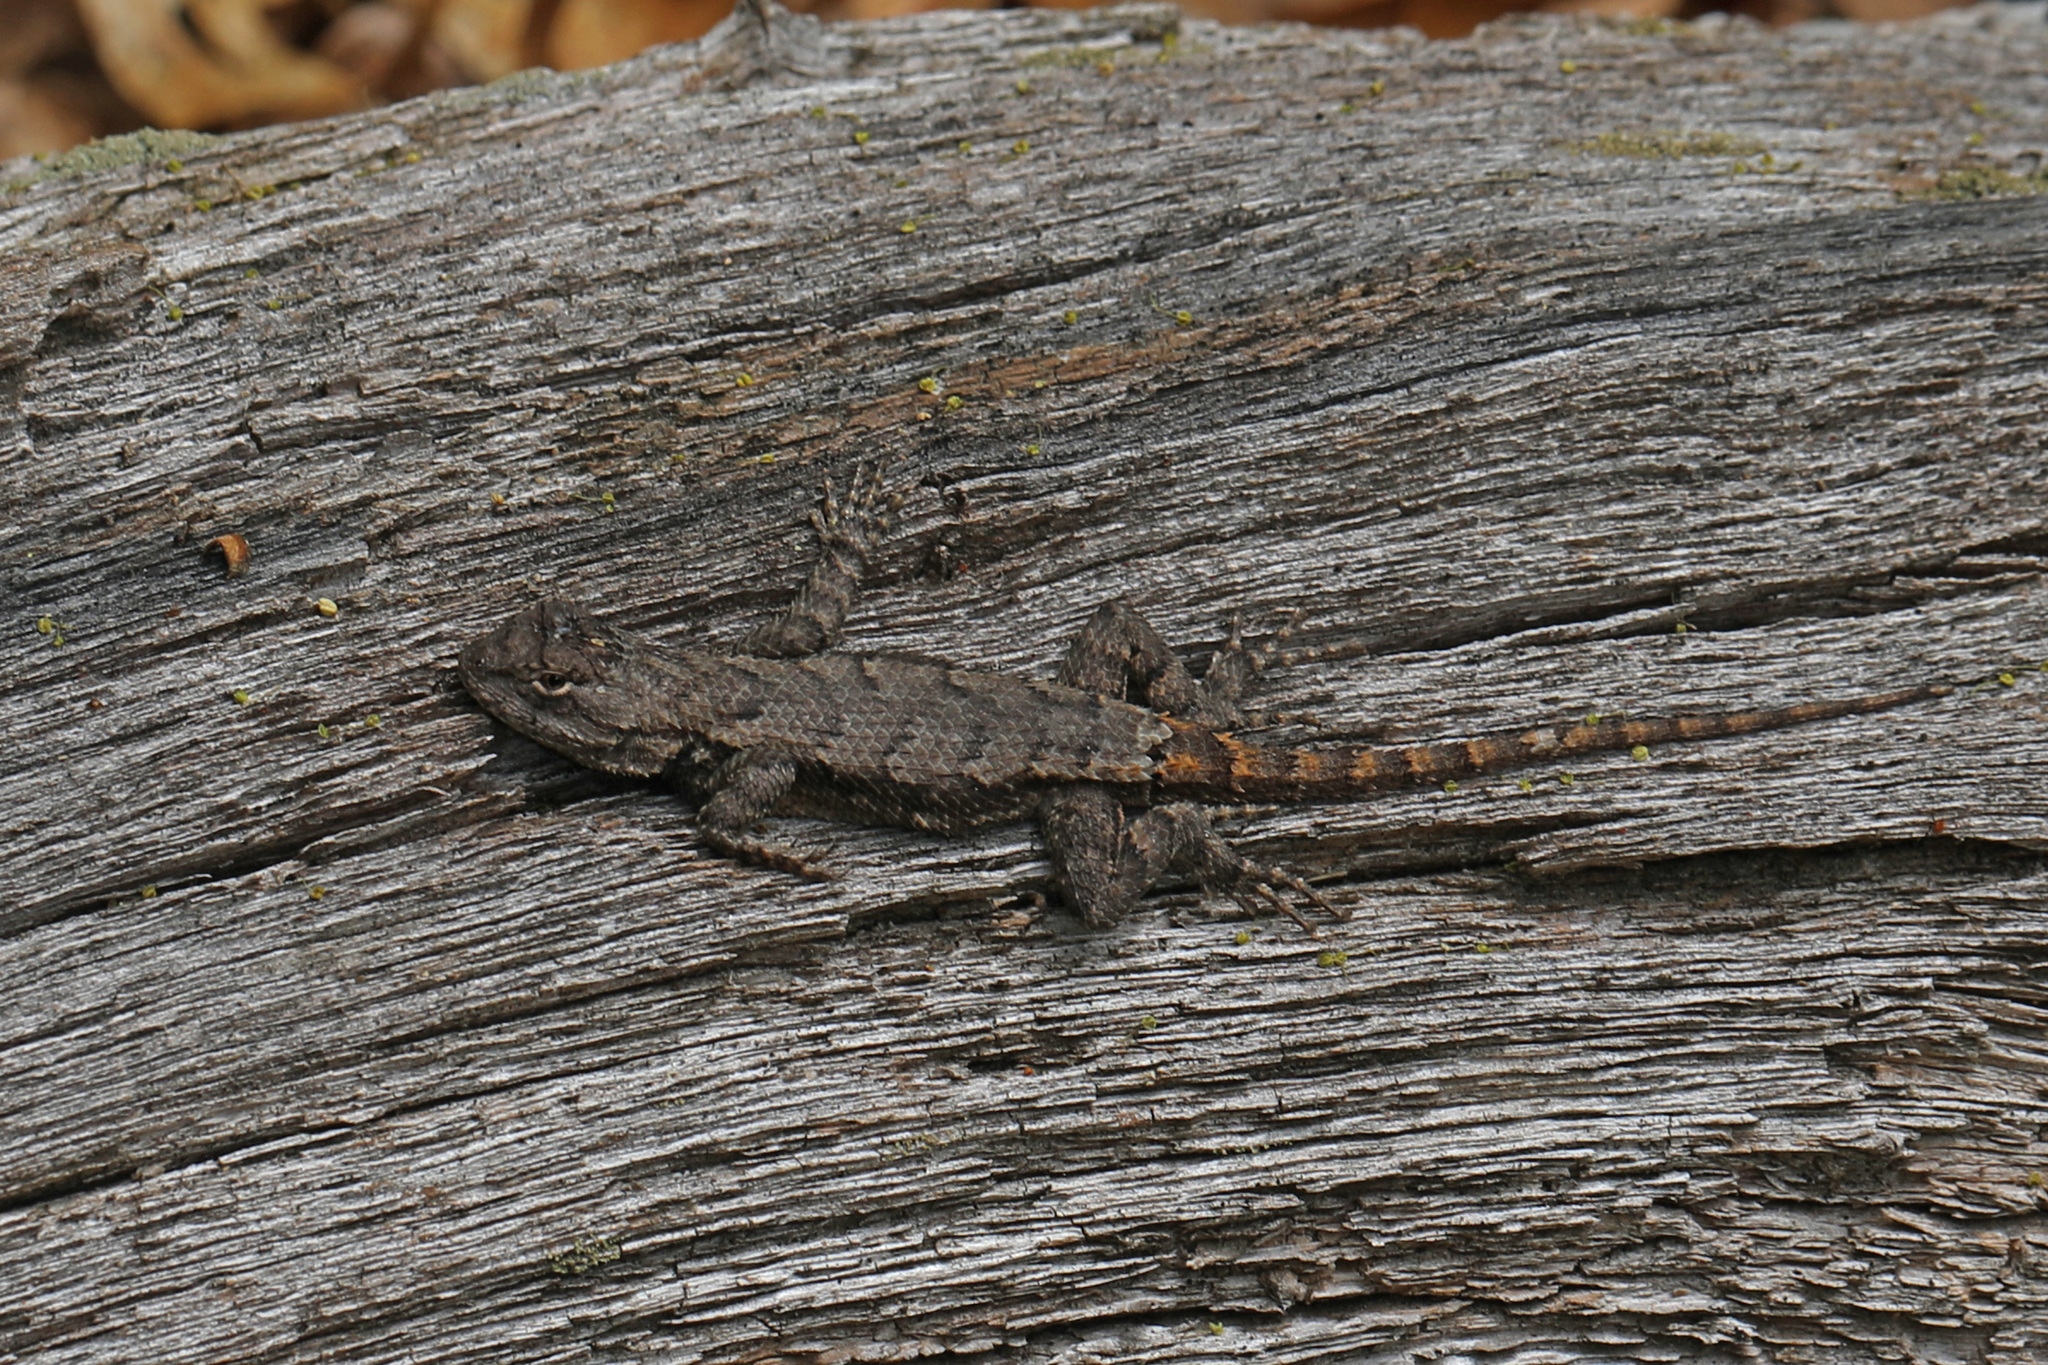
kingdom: Animalia
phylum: Chordata
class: Squamata
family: Phrynosomatidae
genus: Sceloporus
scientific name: Sceloporus undulatus
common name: Eastern fence lizard
